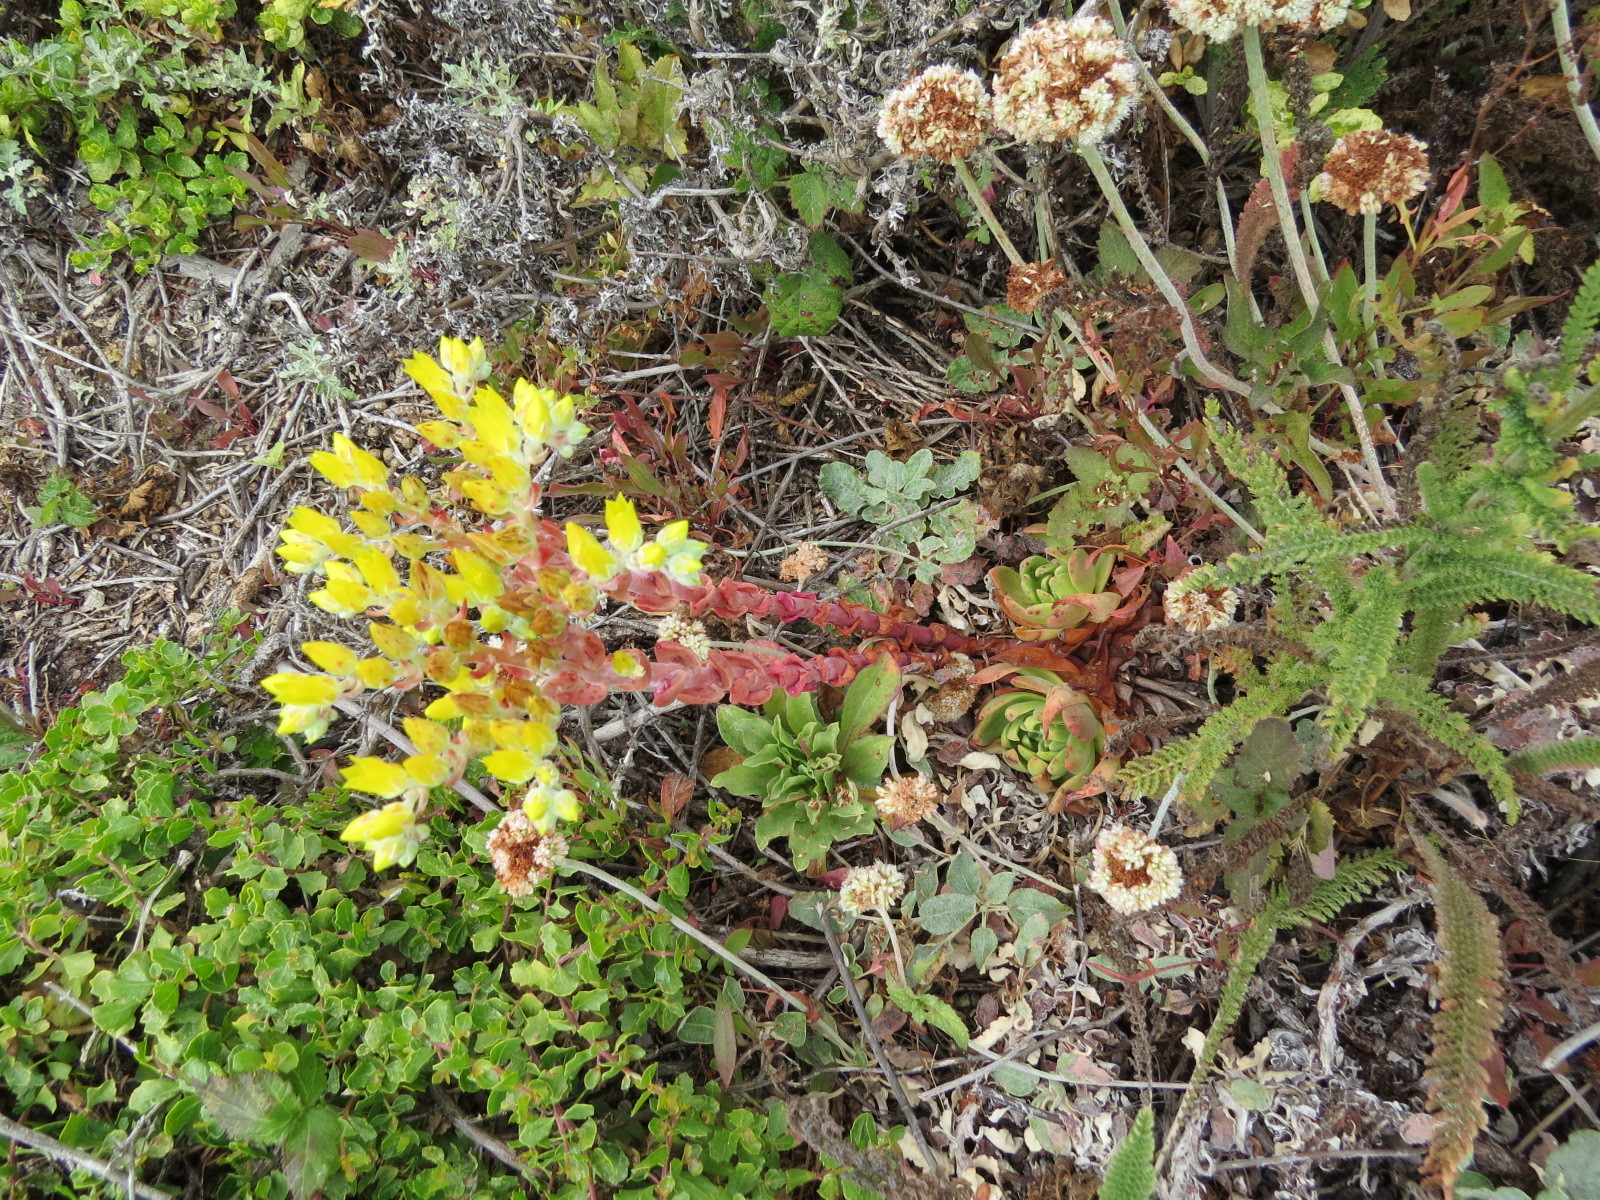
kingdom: Plantae
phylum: Tracheophyta
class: Magnoliopsida
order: Saxifragales
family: Crassulaceae
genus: Dudleya
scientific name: Dudleya caespitosa
